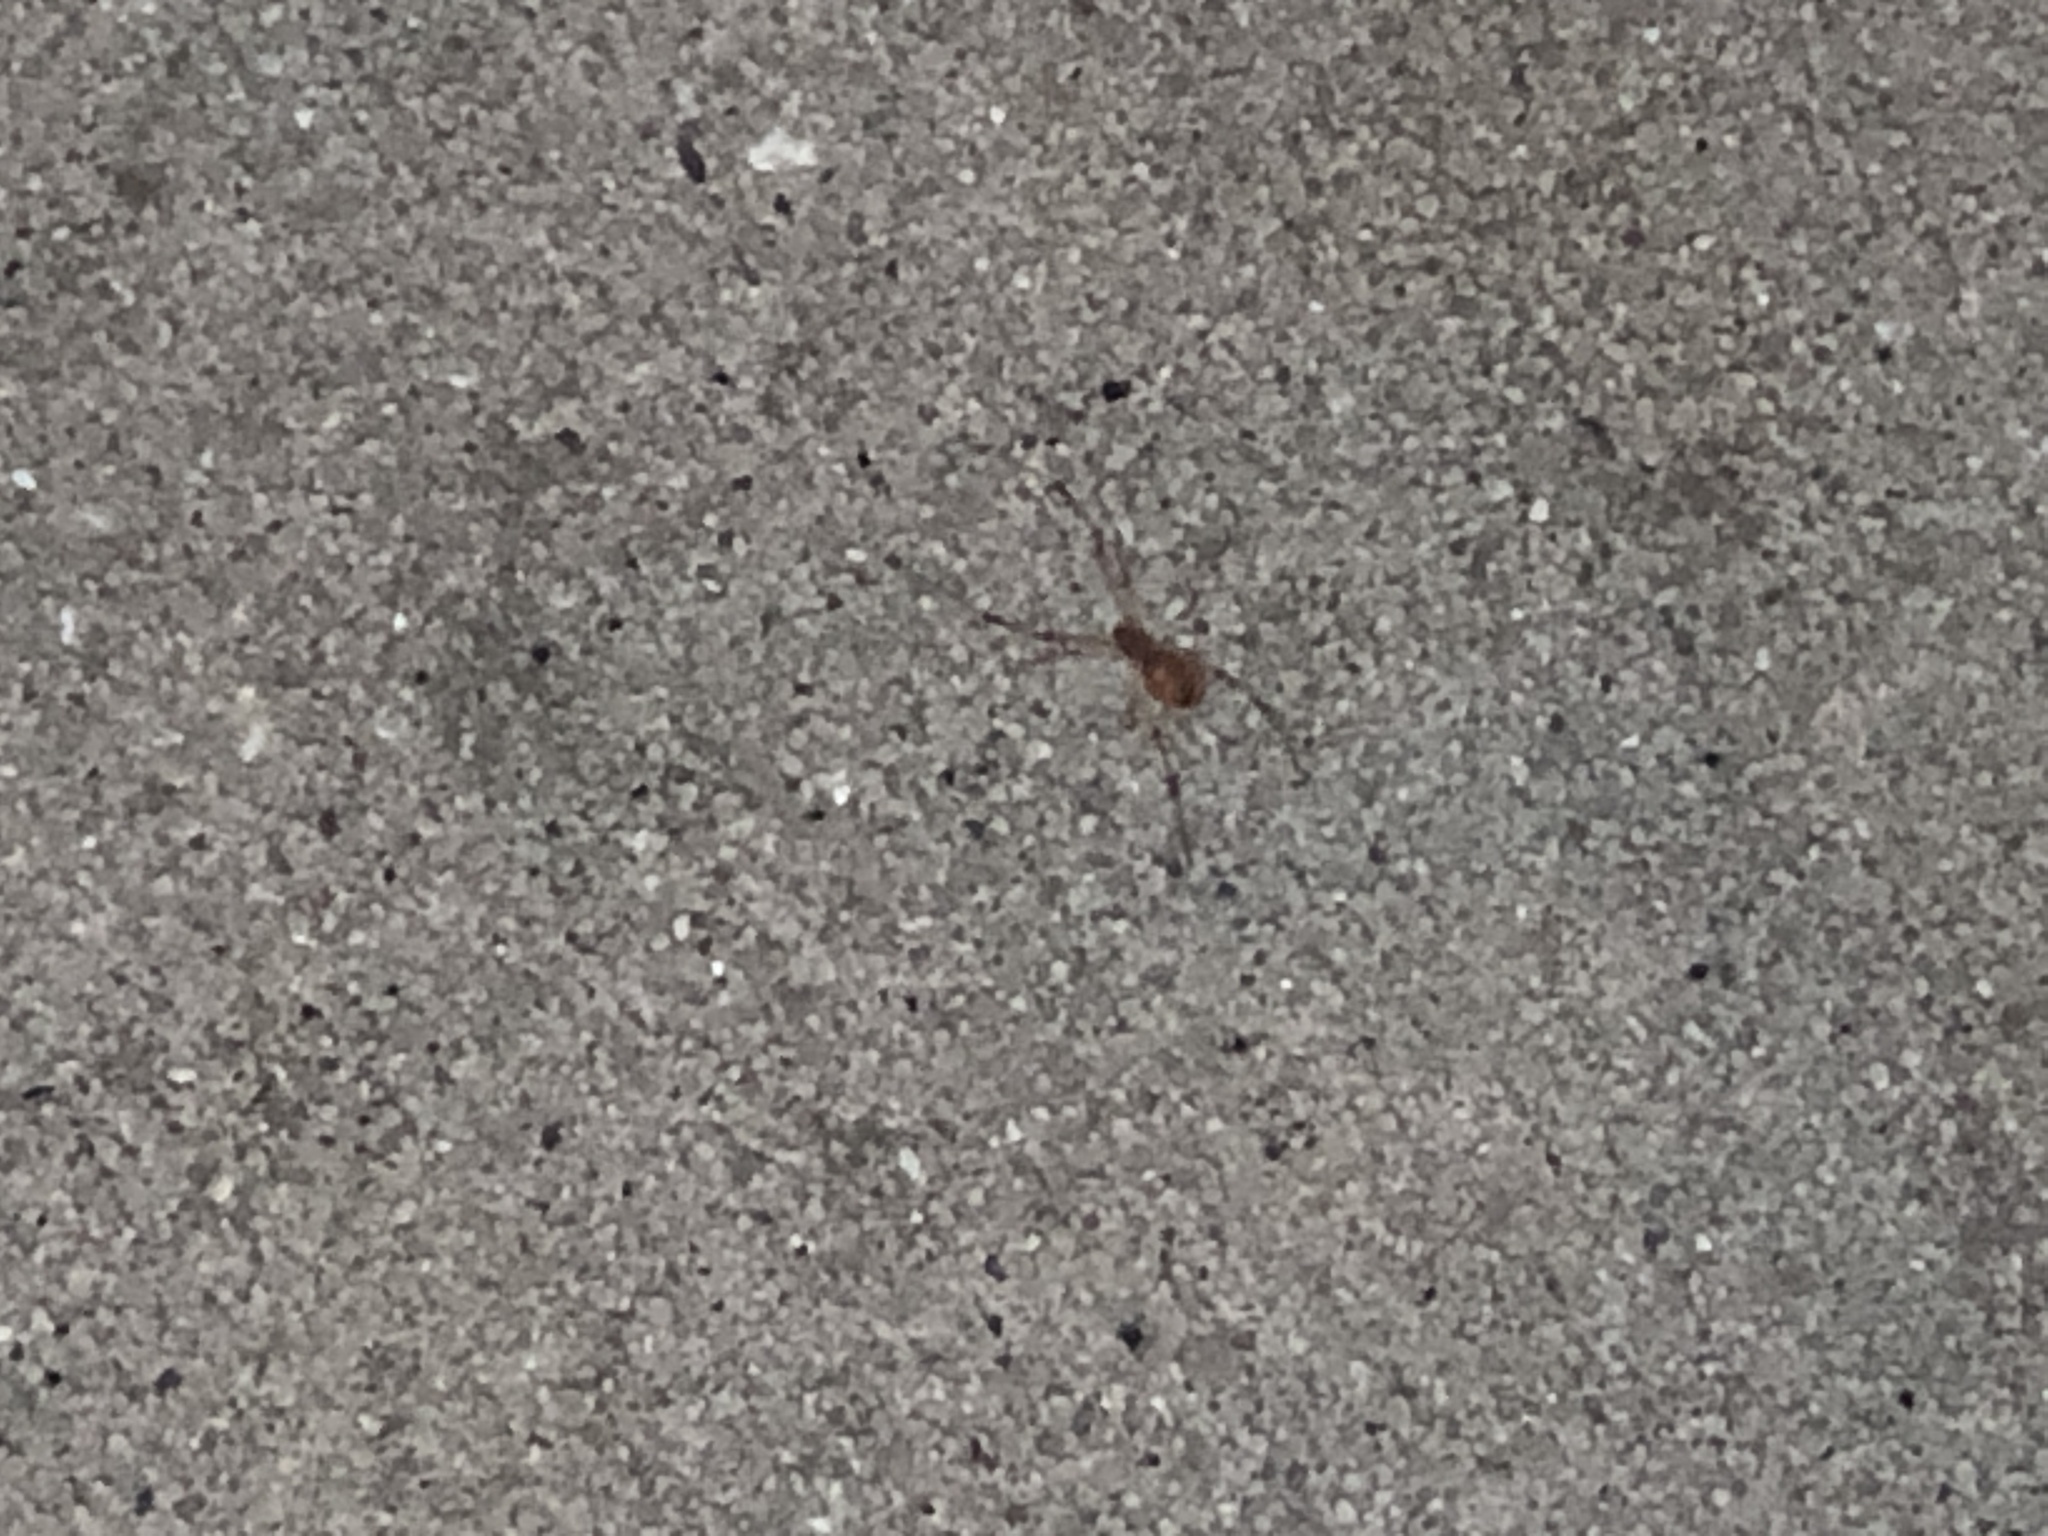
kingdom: Animalia
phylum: Arthropoda
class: Arachnida
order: Araneae
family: Theridiidae
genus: Latrodectus
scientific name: Latrodectus geometricus
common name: Brown widow spider
